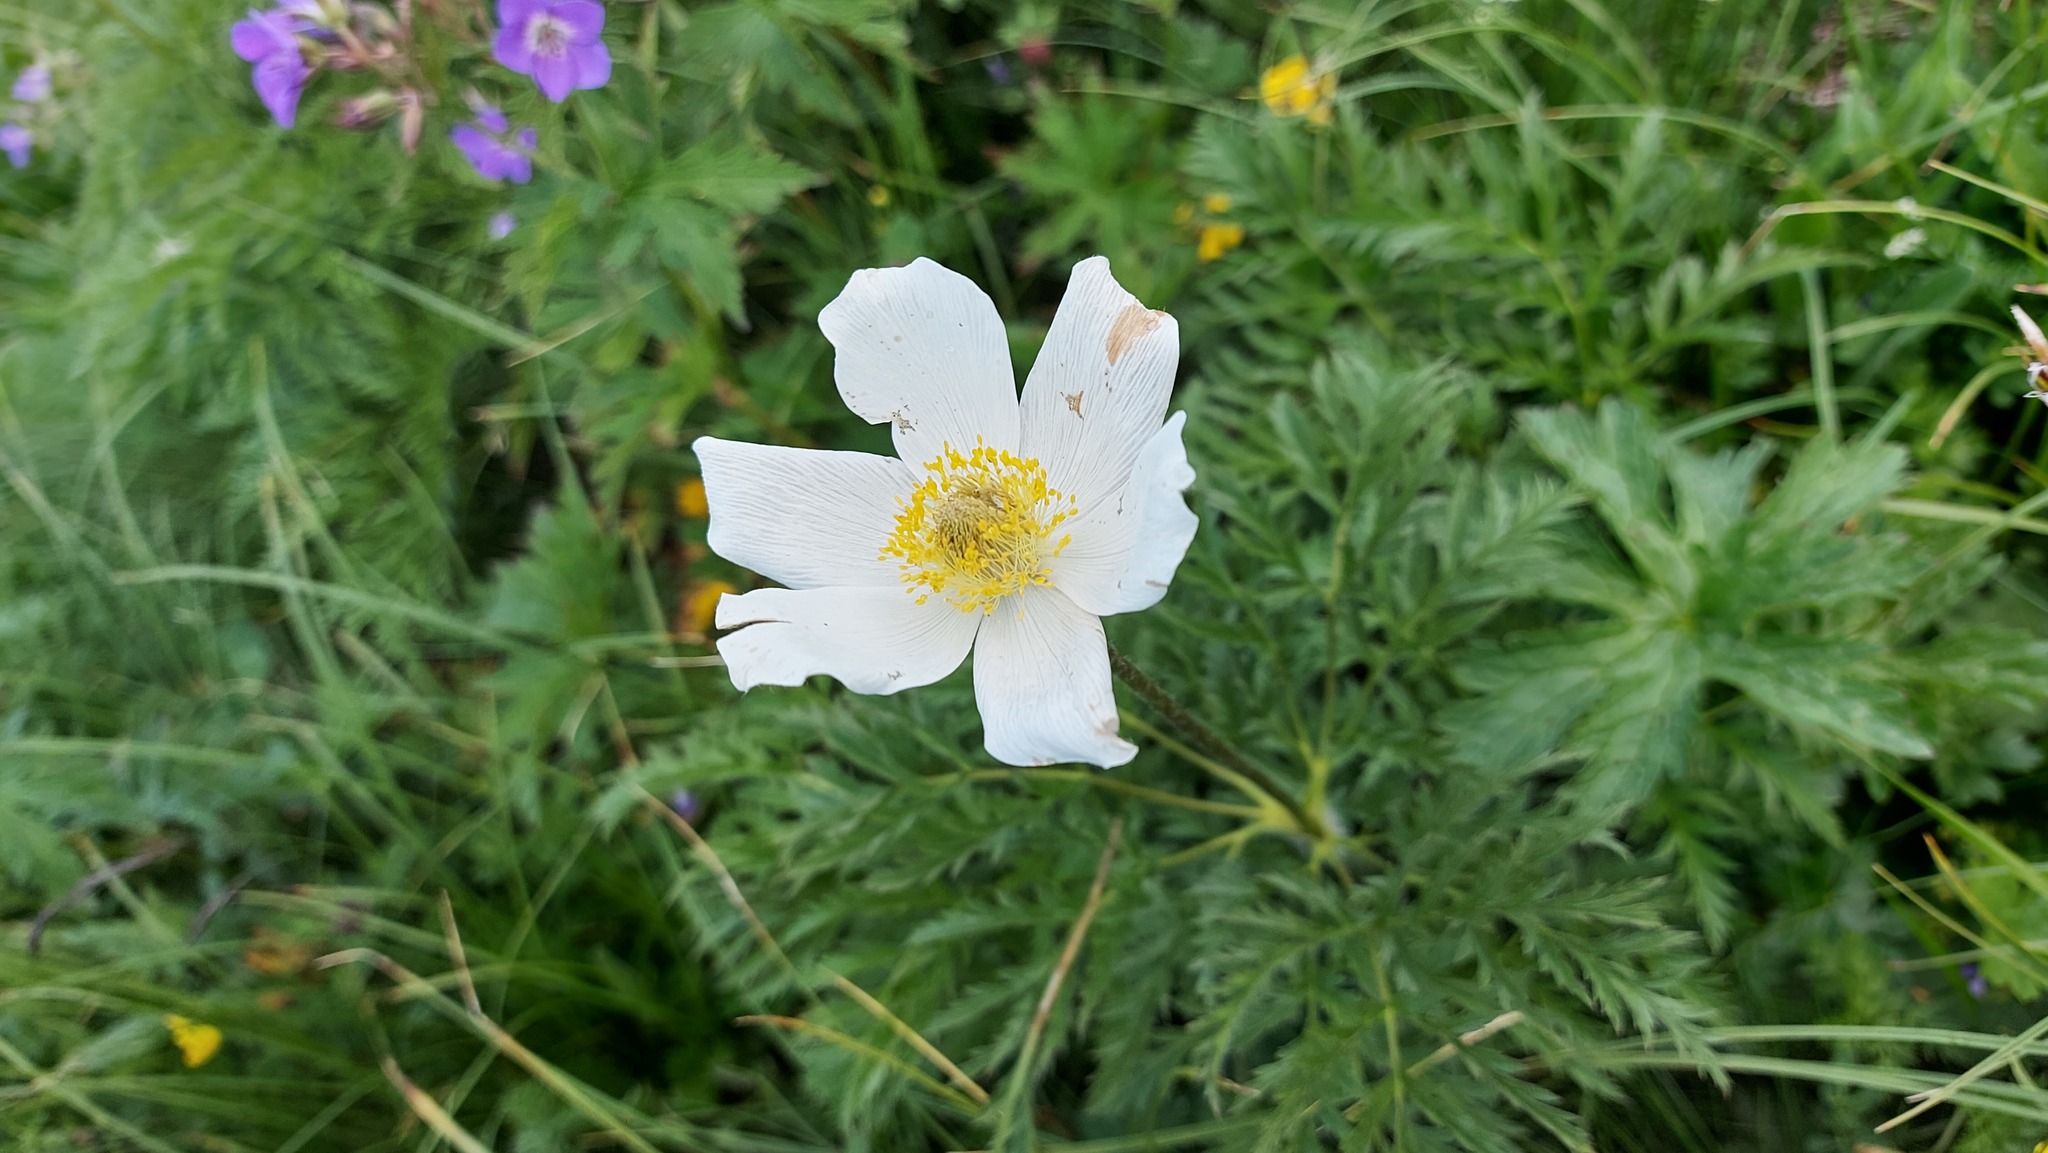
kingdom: Plantae
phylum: Tracheophyta
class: Magnoliopsida
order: Ranunculales
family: Ranunculaceae
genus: Pulsatilla
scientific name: Pulsatilla alpina
